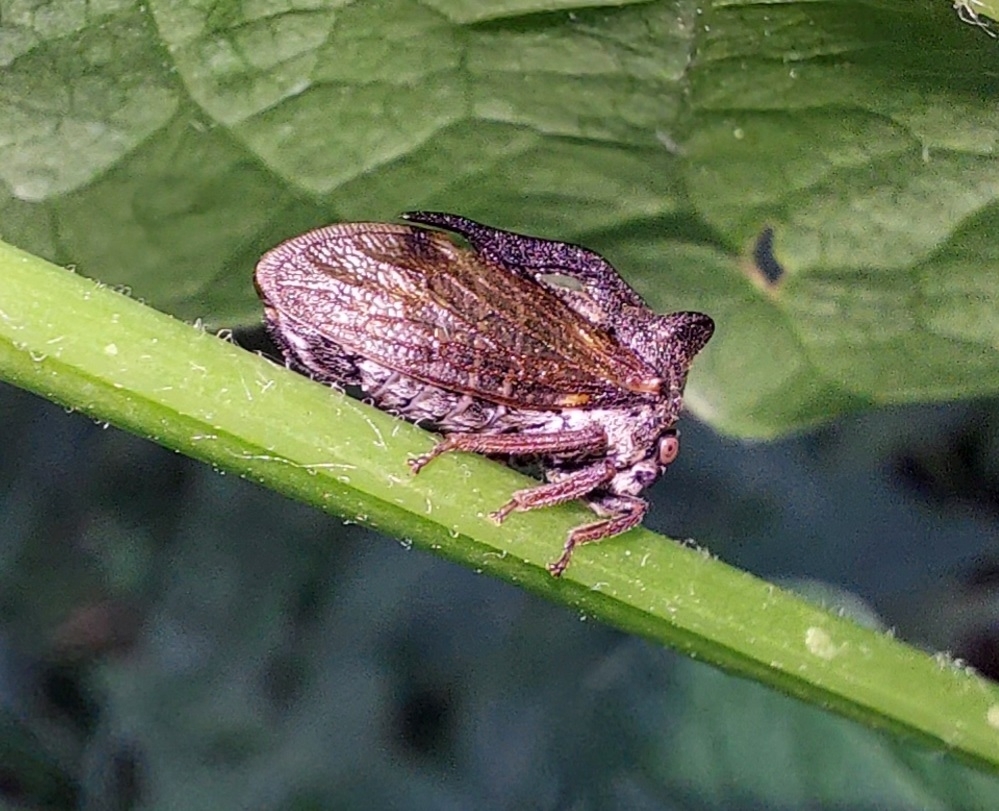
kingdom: Animalia
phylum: Arthropoda
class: Insecta
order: Hemiptera
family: Membracidae
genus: Centrotus
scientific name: Centrotus cornuta
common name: Treehopper
